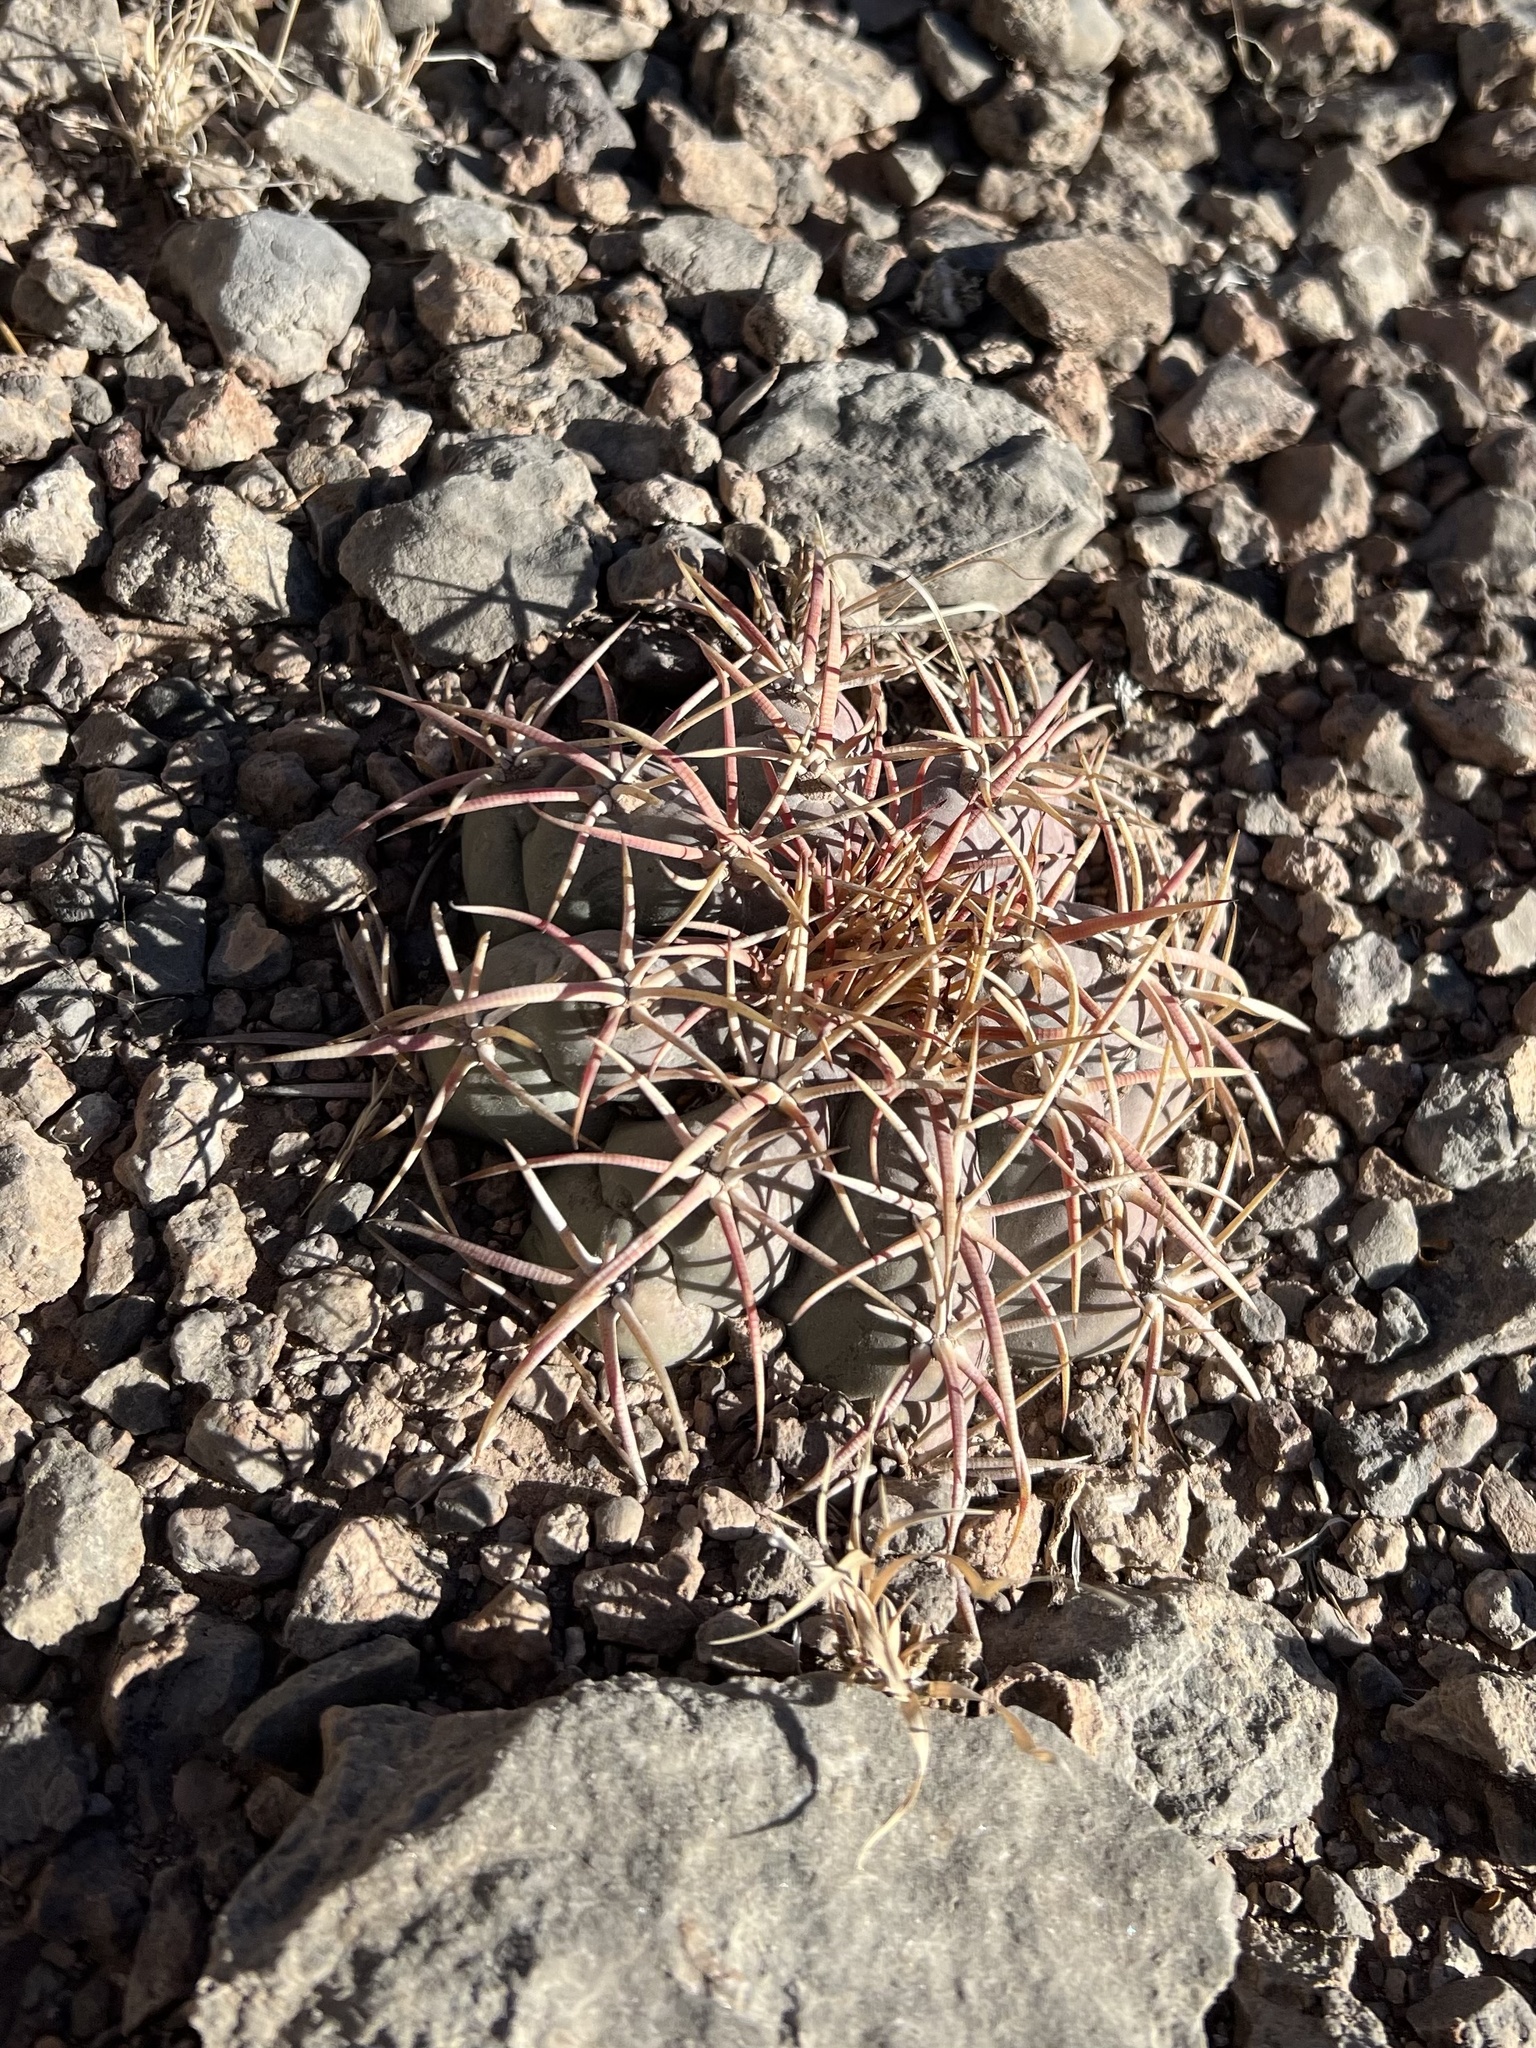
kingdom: Plantae
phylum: Tracheophyta
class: Magnoliopsida
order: Caryophyllales
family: Cactaceae
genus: Echinocactus
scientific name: Echinocactus horizonthalonius
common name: Devilshead
